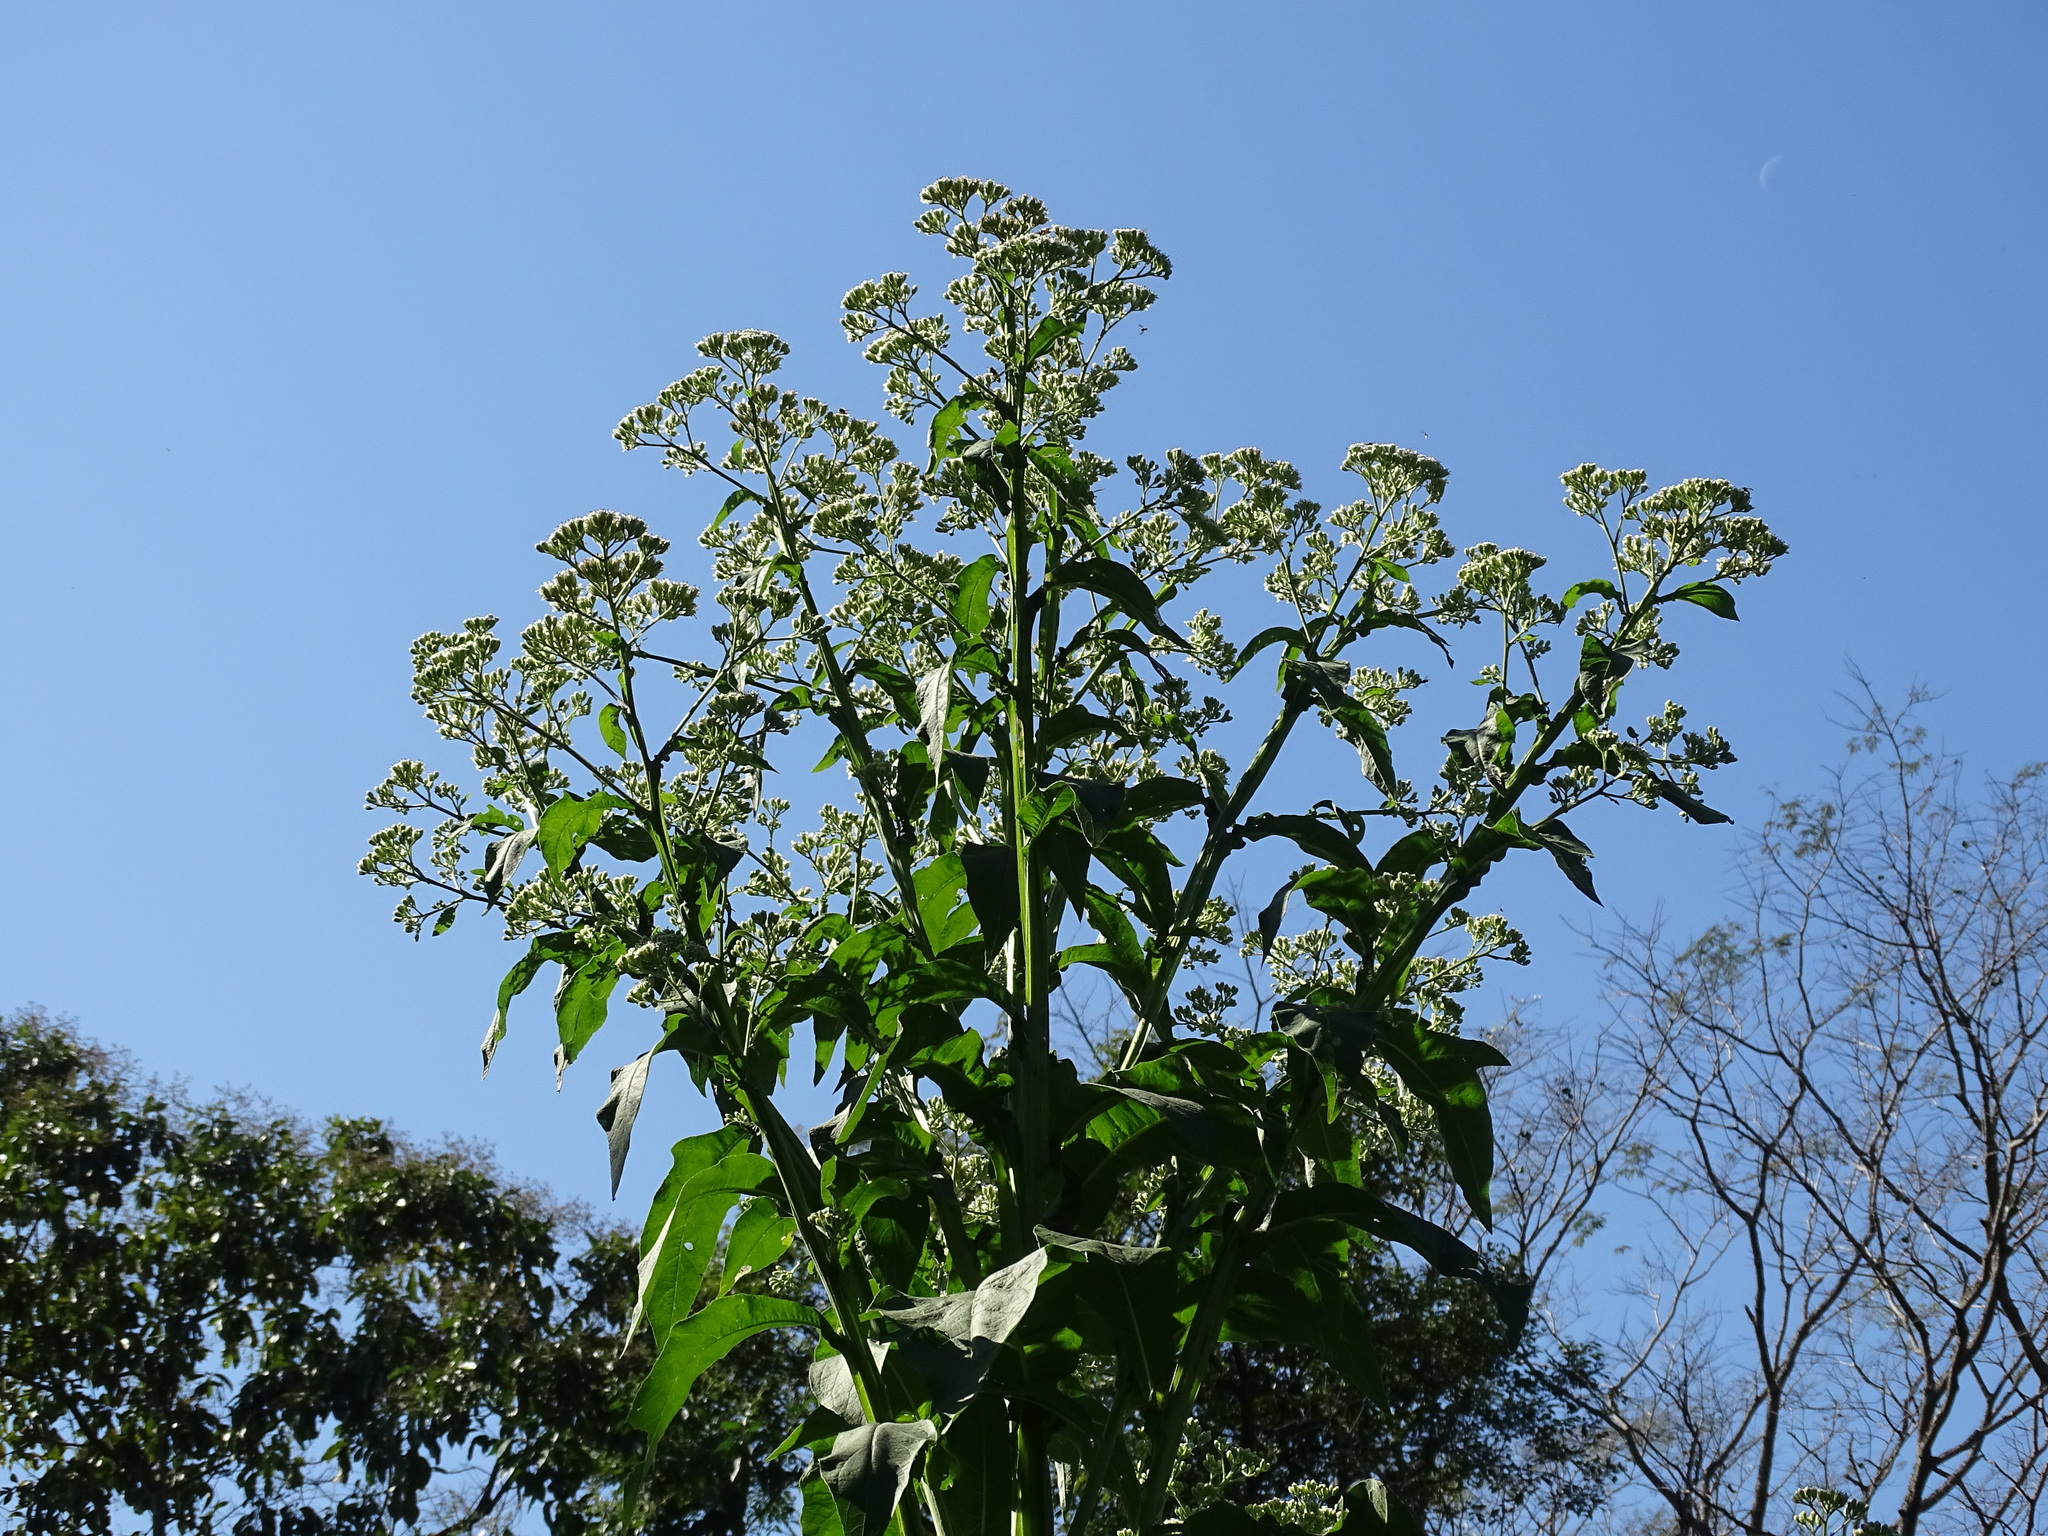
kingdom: Plantae
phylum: Tracheophyta
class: Magnoliopsida
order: Asterales
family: Asteraceae
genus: Verbesina
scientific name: Verbesina turbacensis
